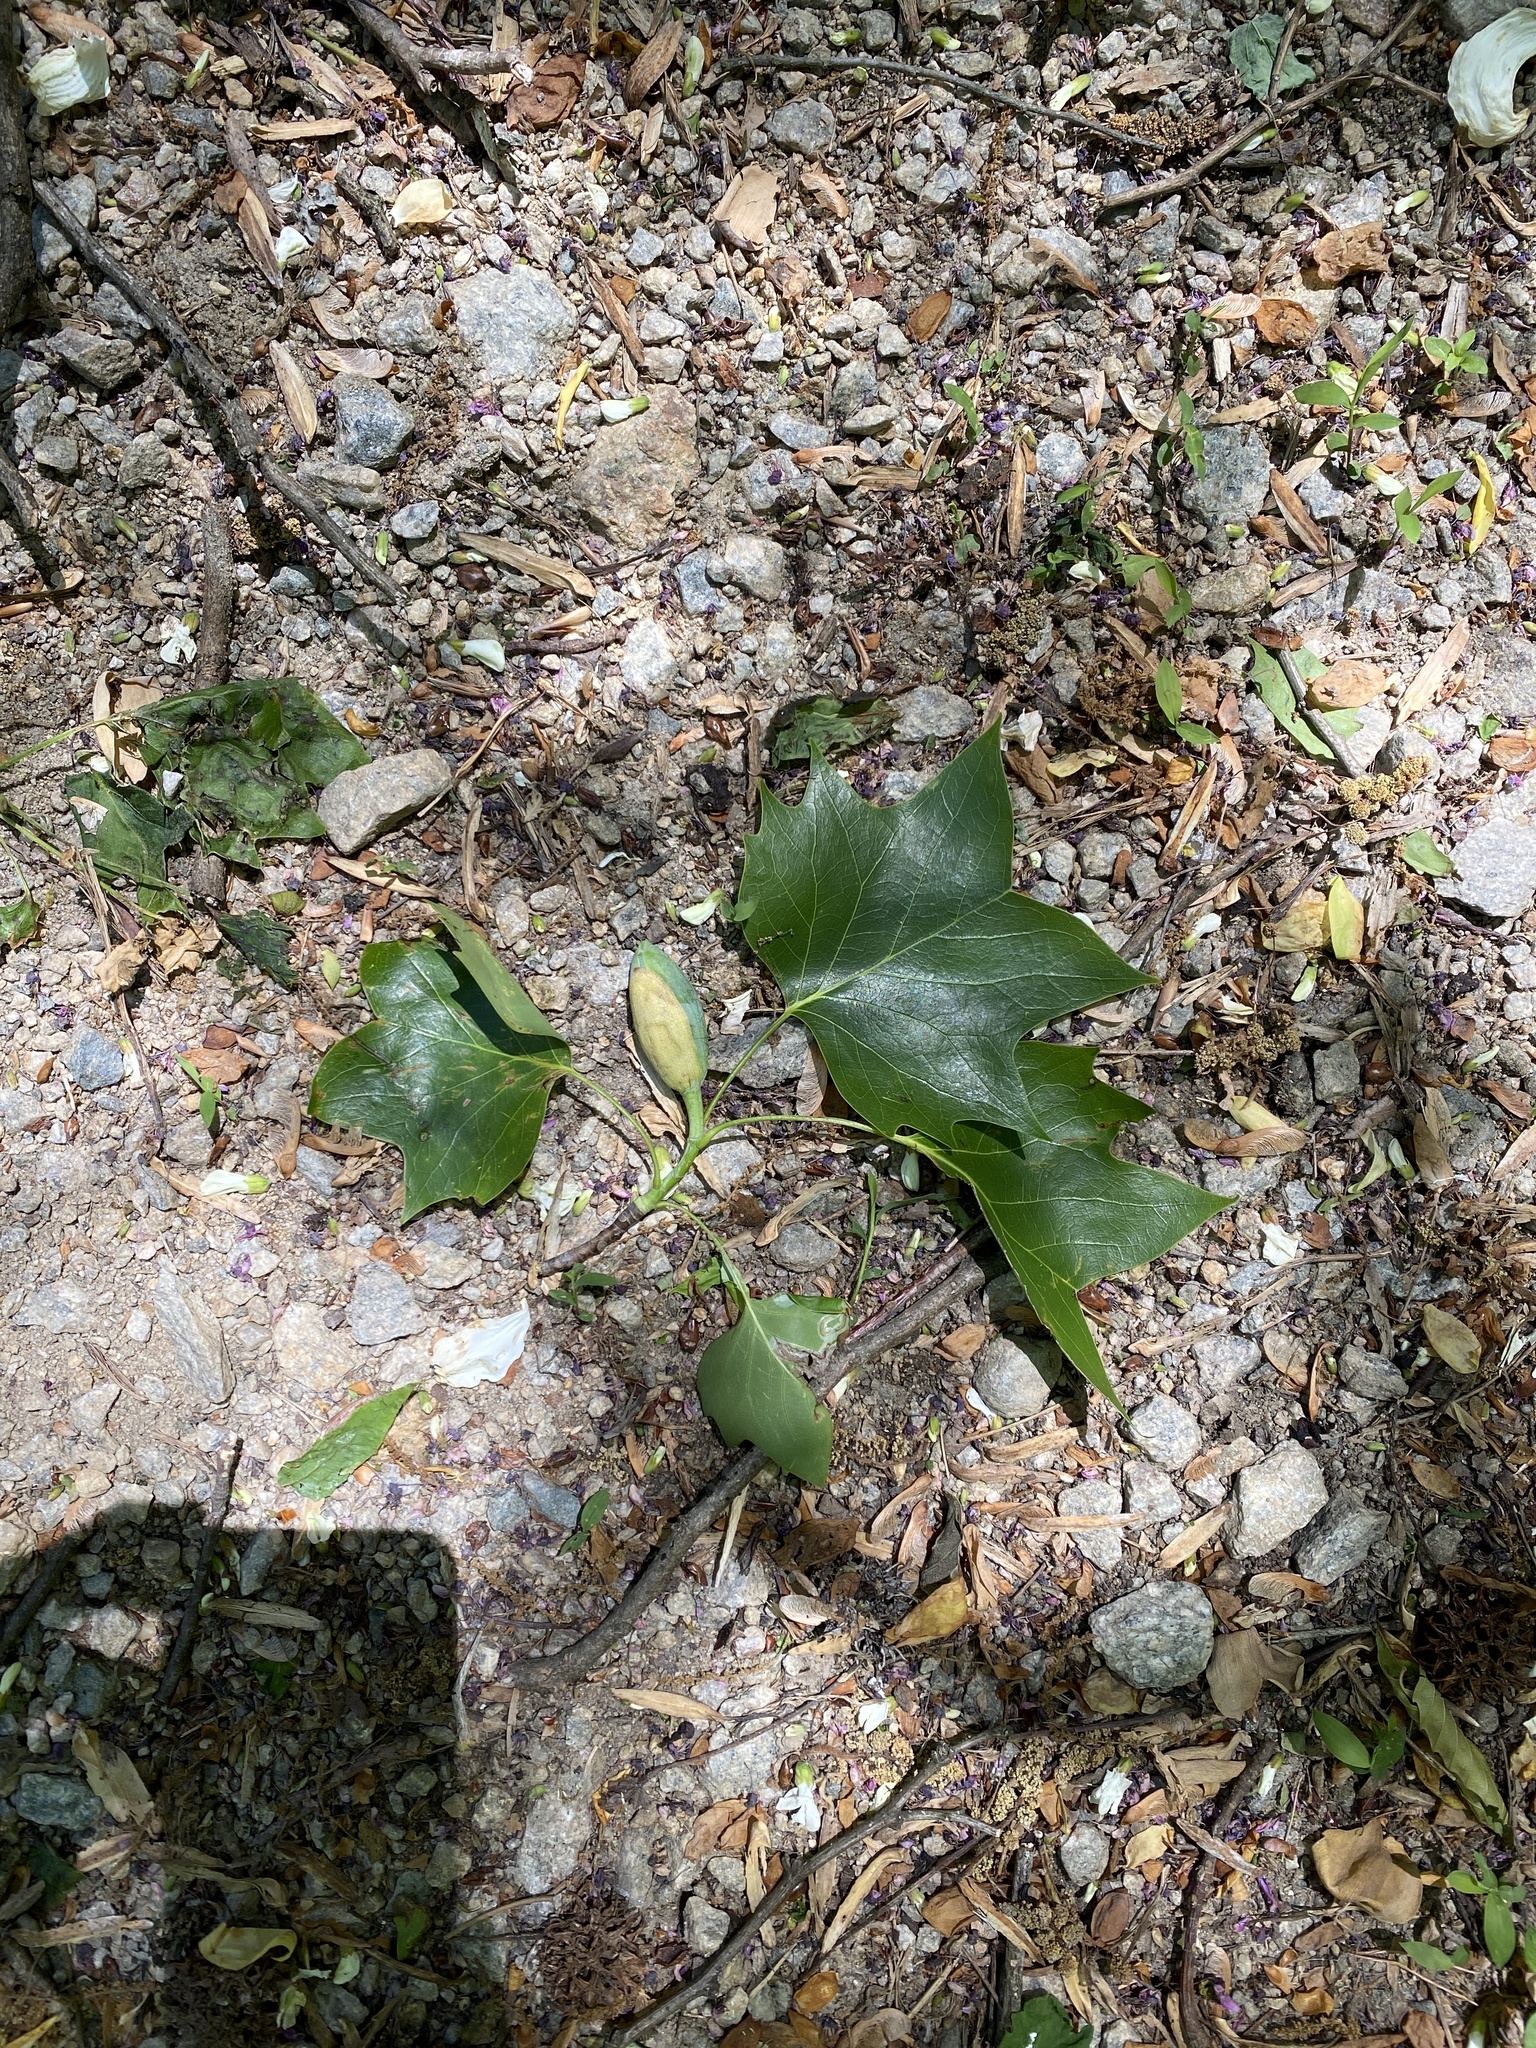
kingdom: Plantae
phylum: Tracheophyta
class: Magnoliopsida
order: Magnoliales
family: Magnoliaceae
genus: Liriodendron
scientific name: Liriodendron tulipifera
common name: Tulip tree
